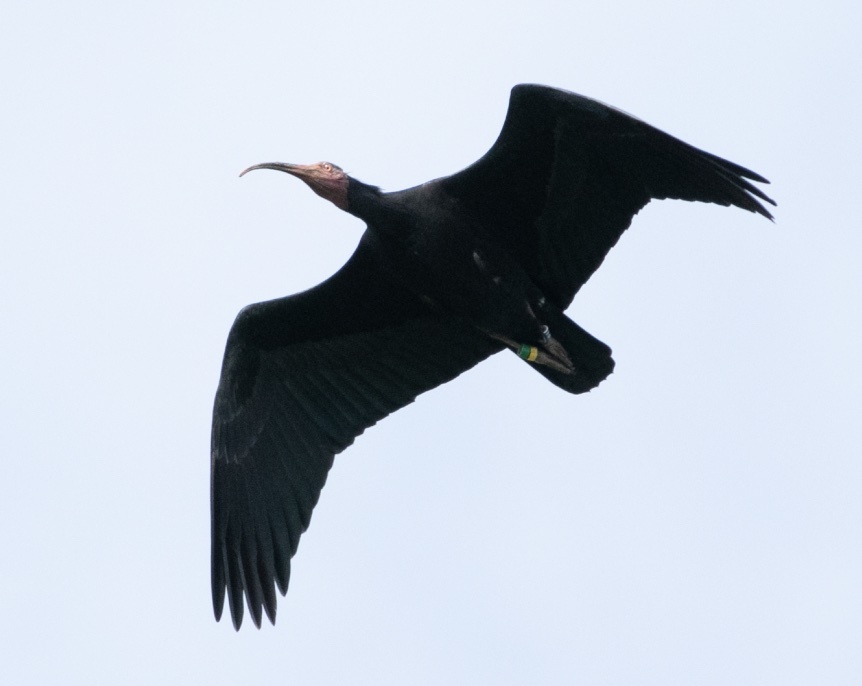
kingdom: Animalia
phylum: Chordata
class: Aves
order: Pelecaniformes
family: Threskiornithidae
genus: Geronticus
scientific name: Geronticus eremita
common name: Northern bald ibis
